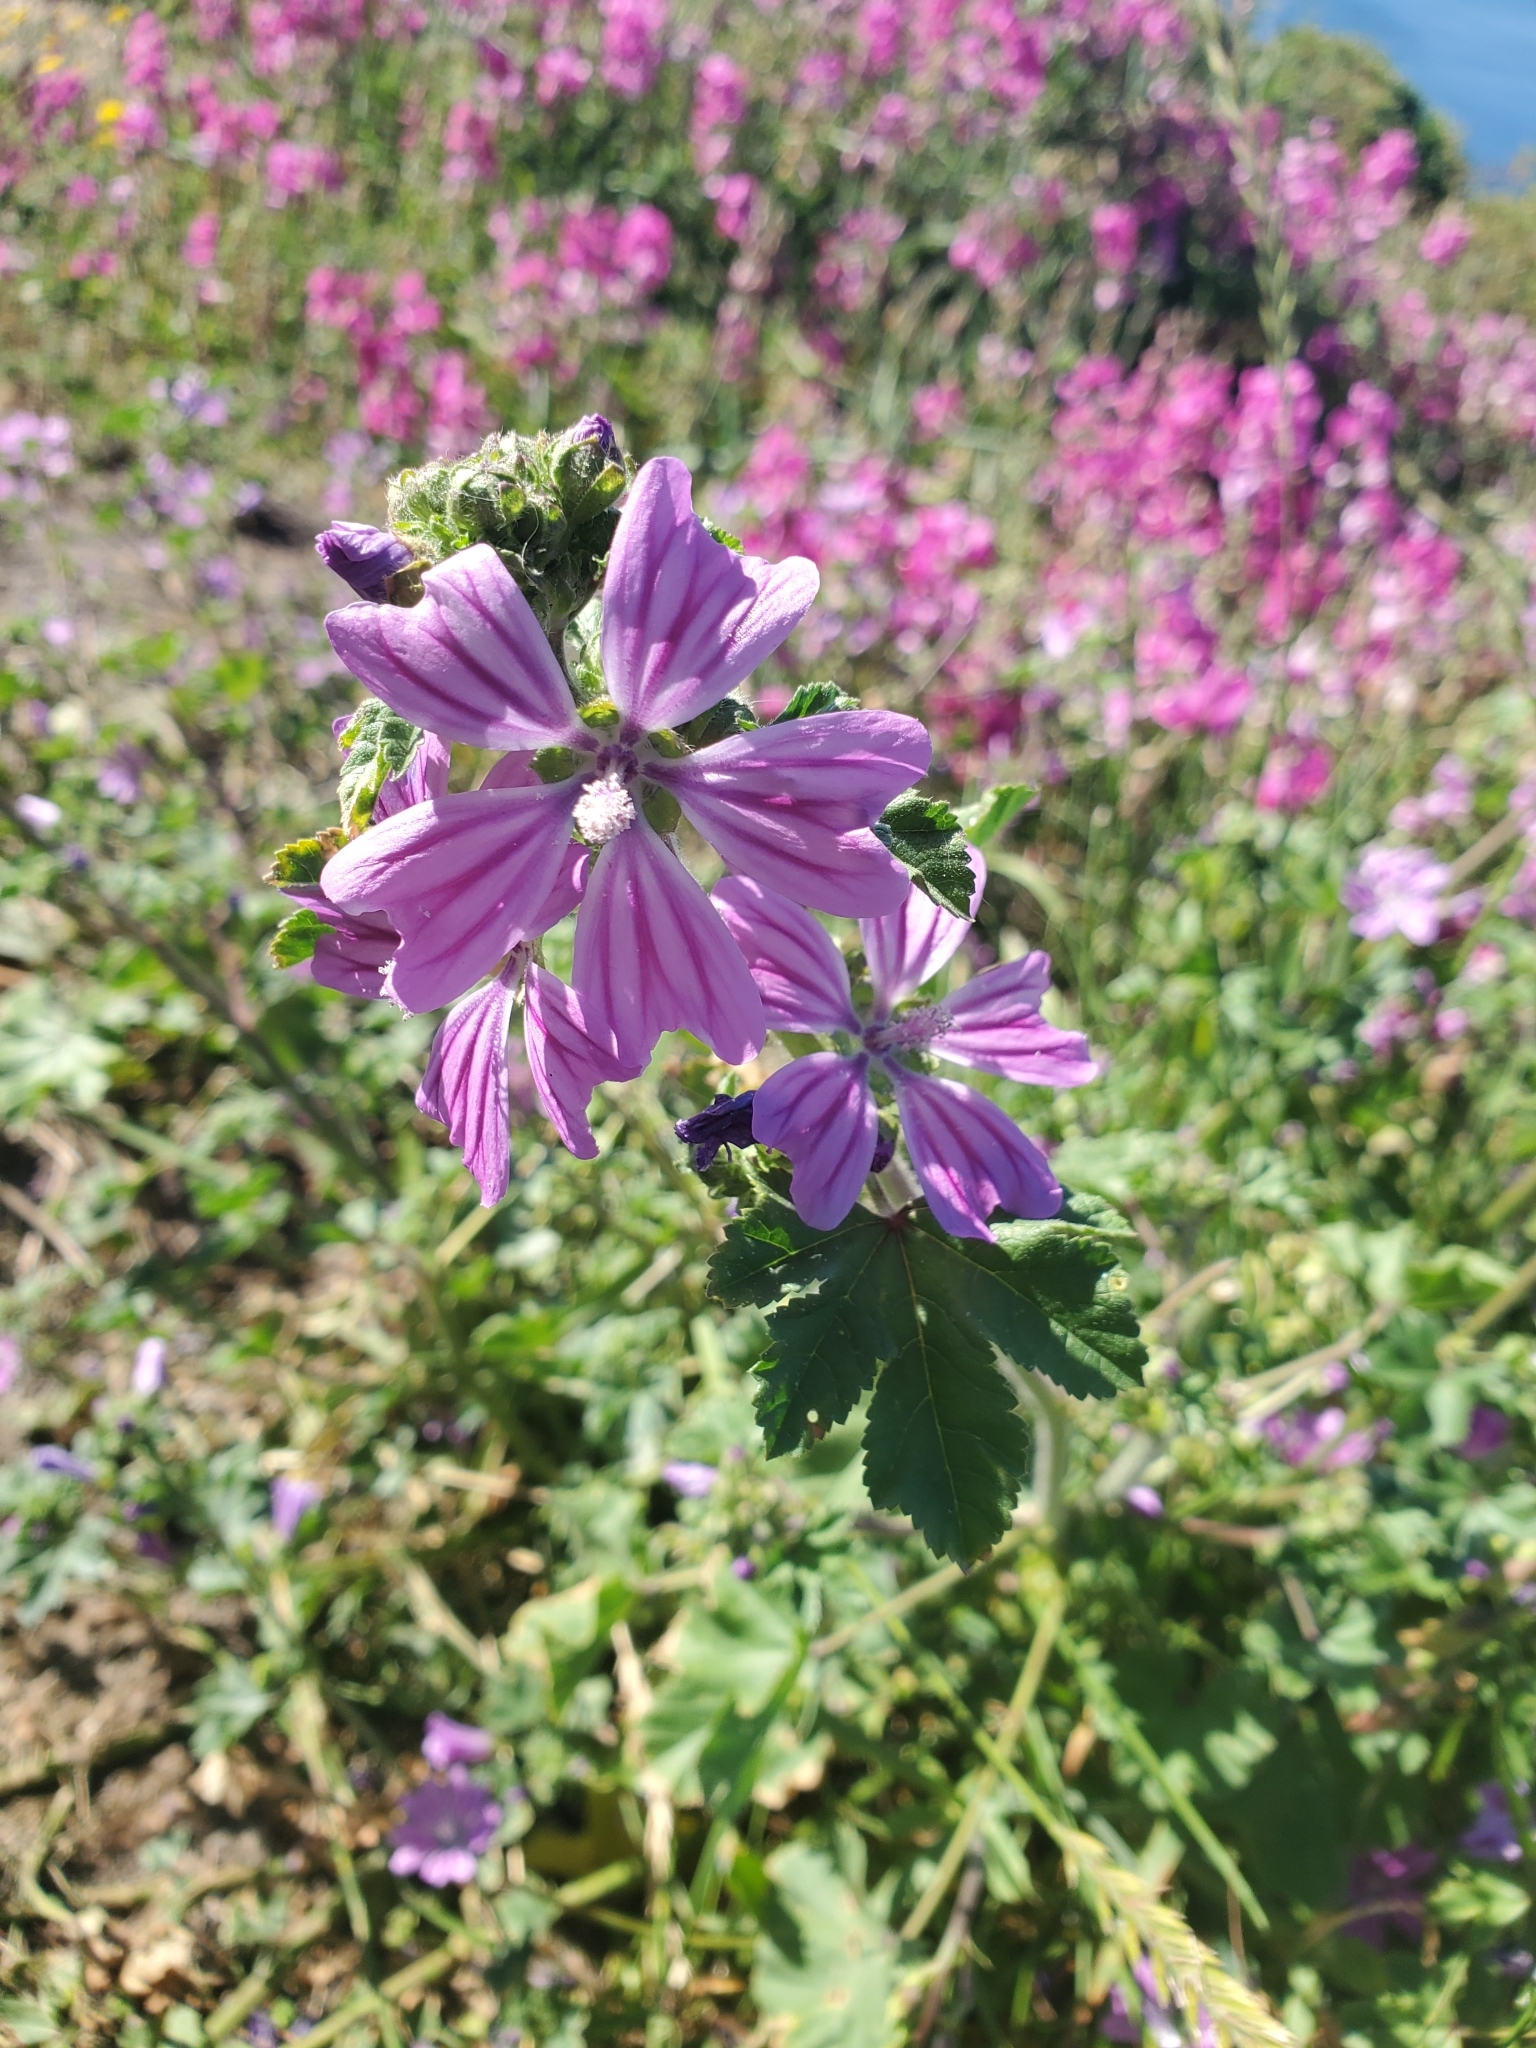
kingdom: Plantae
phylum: Tracheophyta
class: Magnoliopsida
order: Malvales
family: Malvaceae
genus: Malva
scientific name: Malva sylvestris
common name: Common mallow
